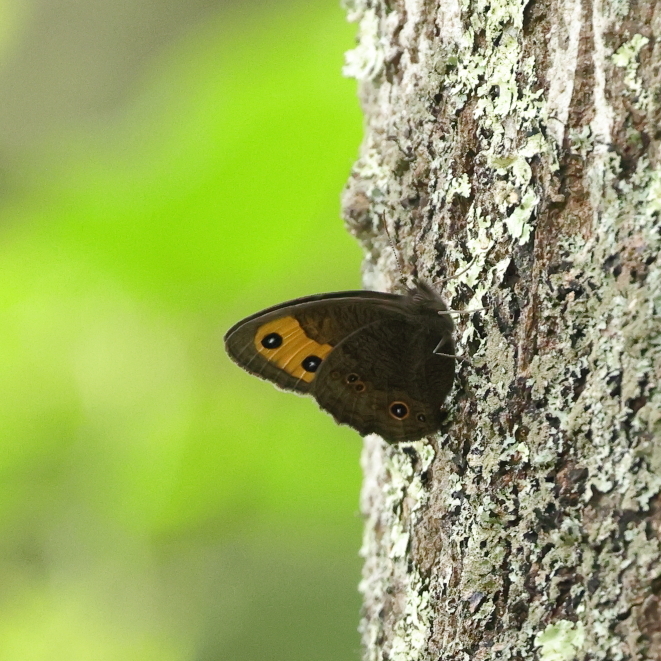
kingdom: Animalia
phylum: Arthropoda
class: Insecta
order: Lepidoptera
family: Nymphalidae
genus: Cercyonis
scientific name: Cercyonis pegala
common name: Common wood-nymph
